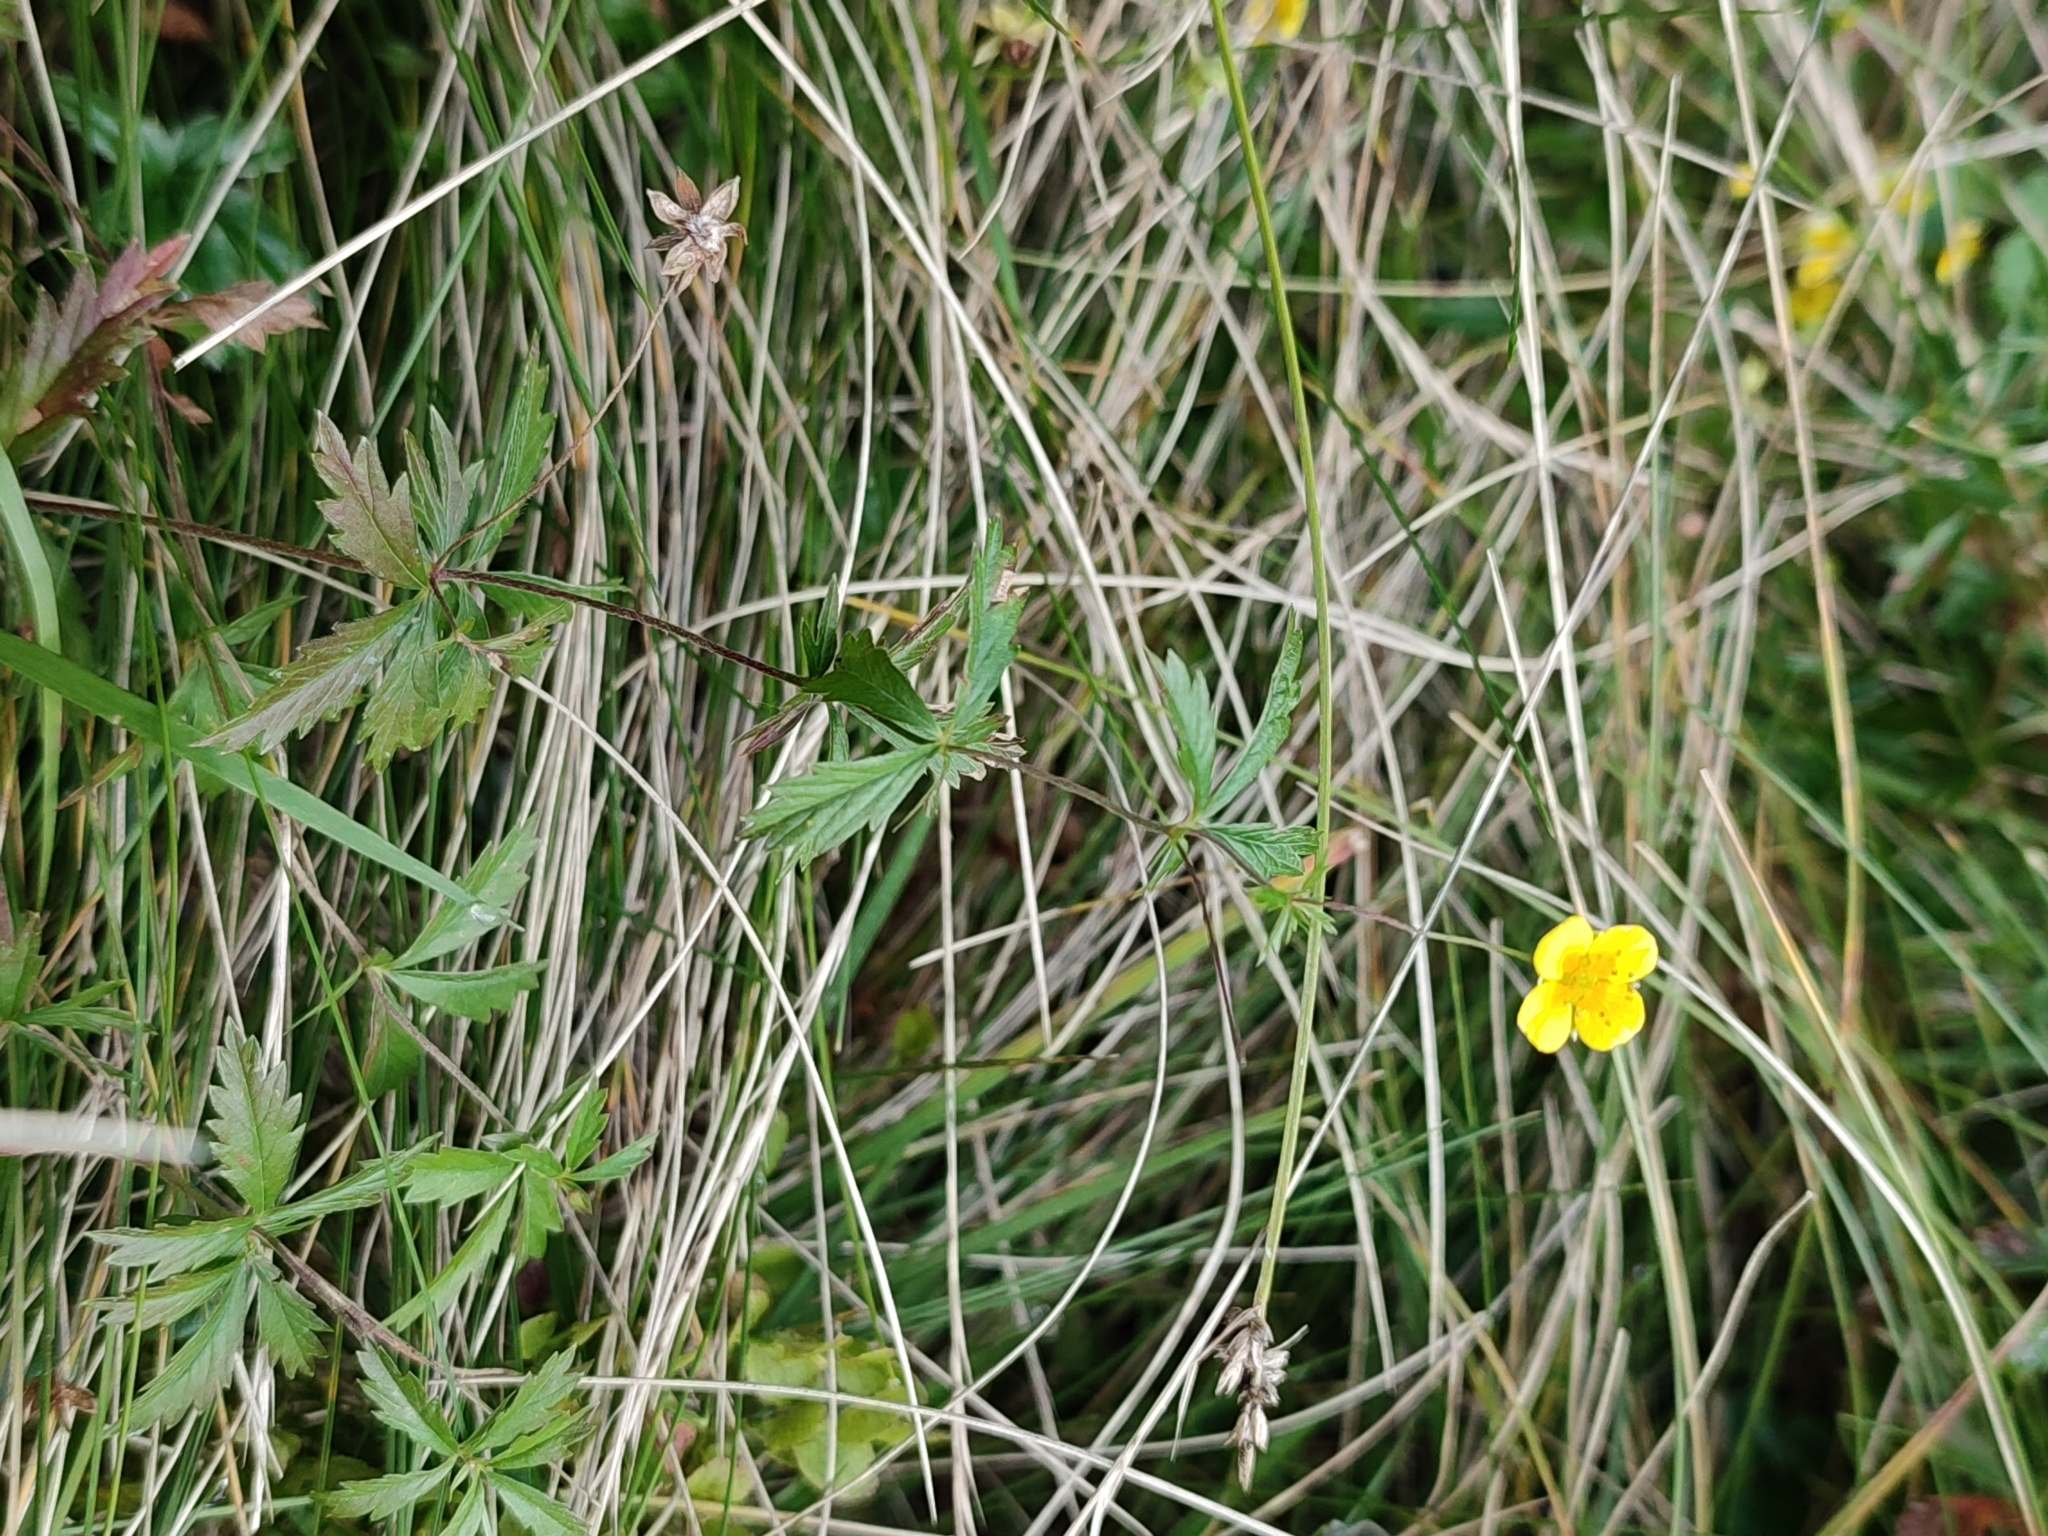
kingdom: Plantae
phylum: Tracheophyta
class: Magnoliopsida
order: Rosales
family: Rosaceae
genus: Potentilla
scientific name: Potentilla erecta
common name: Tormentil
